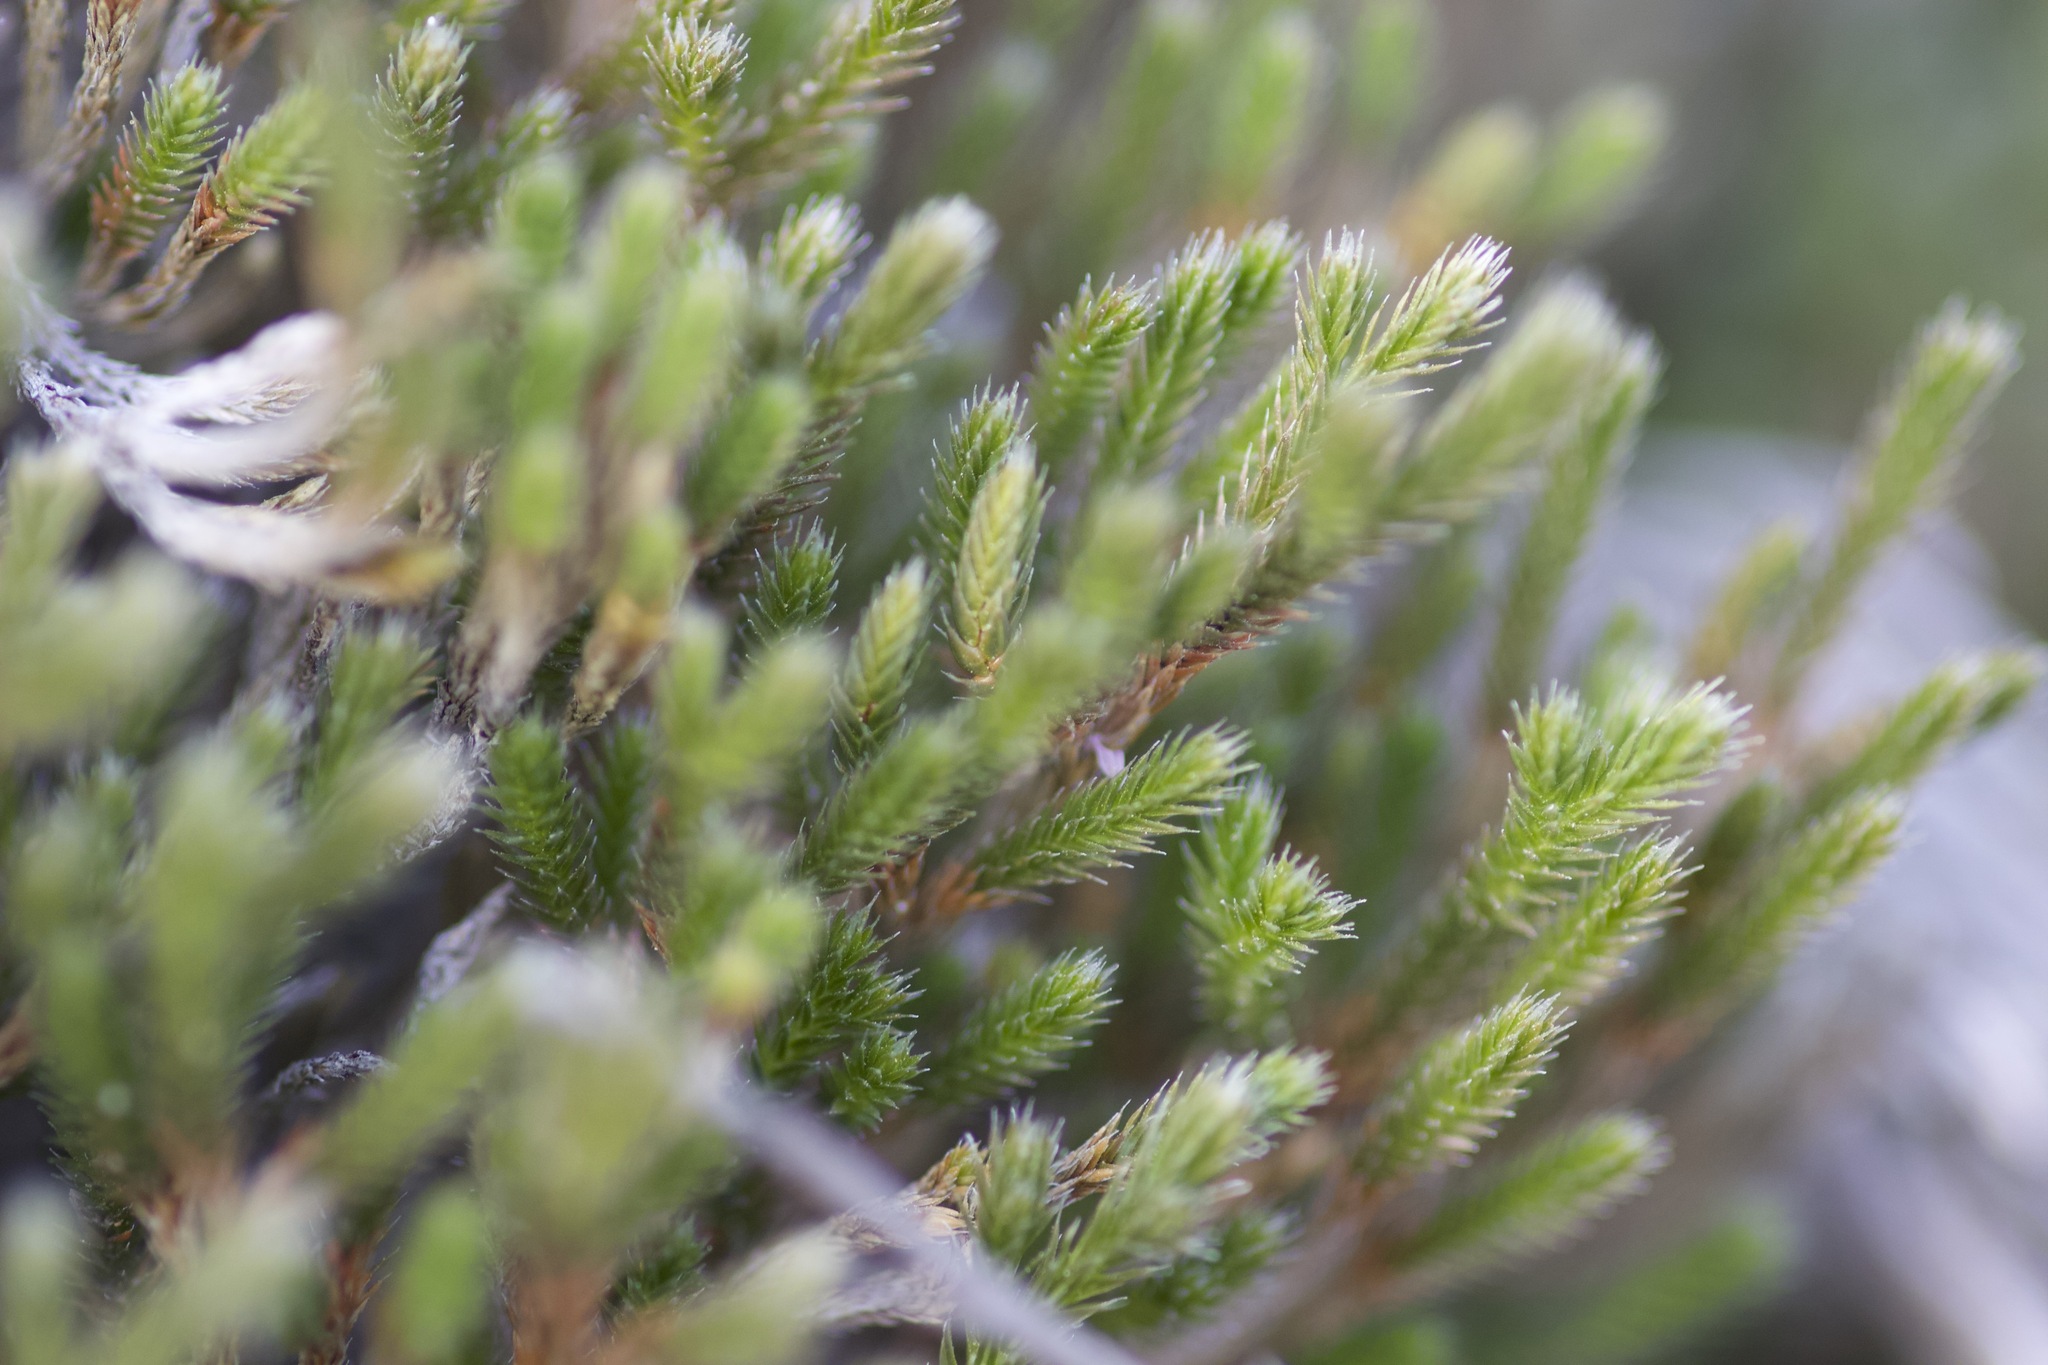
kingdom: Plantae
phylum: Tracheophyta
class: Lycopodiopsida
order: Selaginellales
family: Selaginellaceae
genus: Selaginella
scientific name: Selaginella bigelovii
